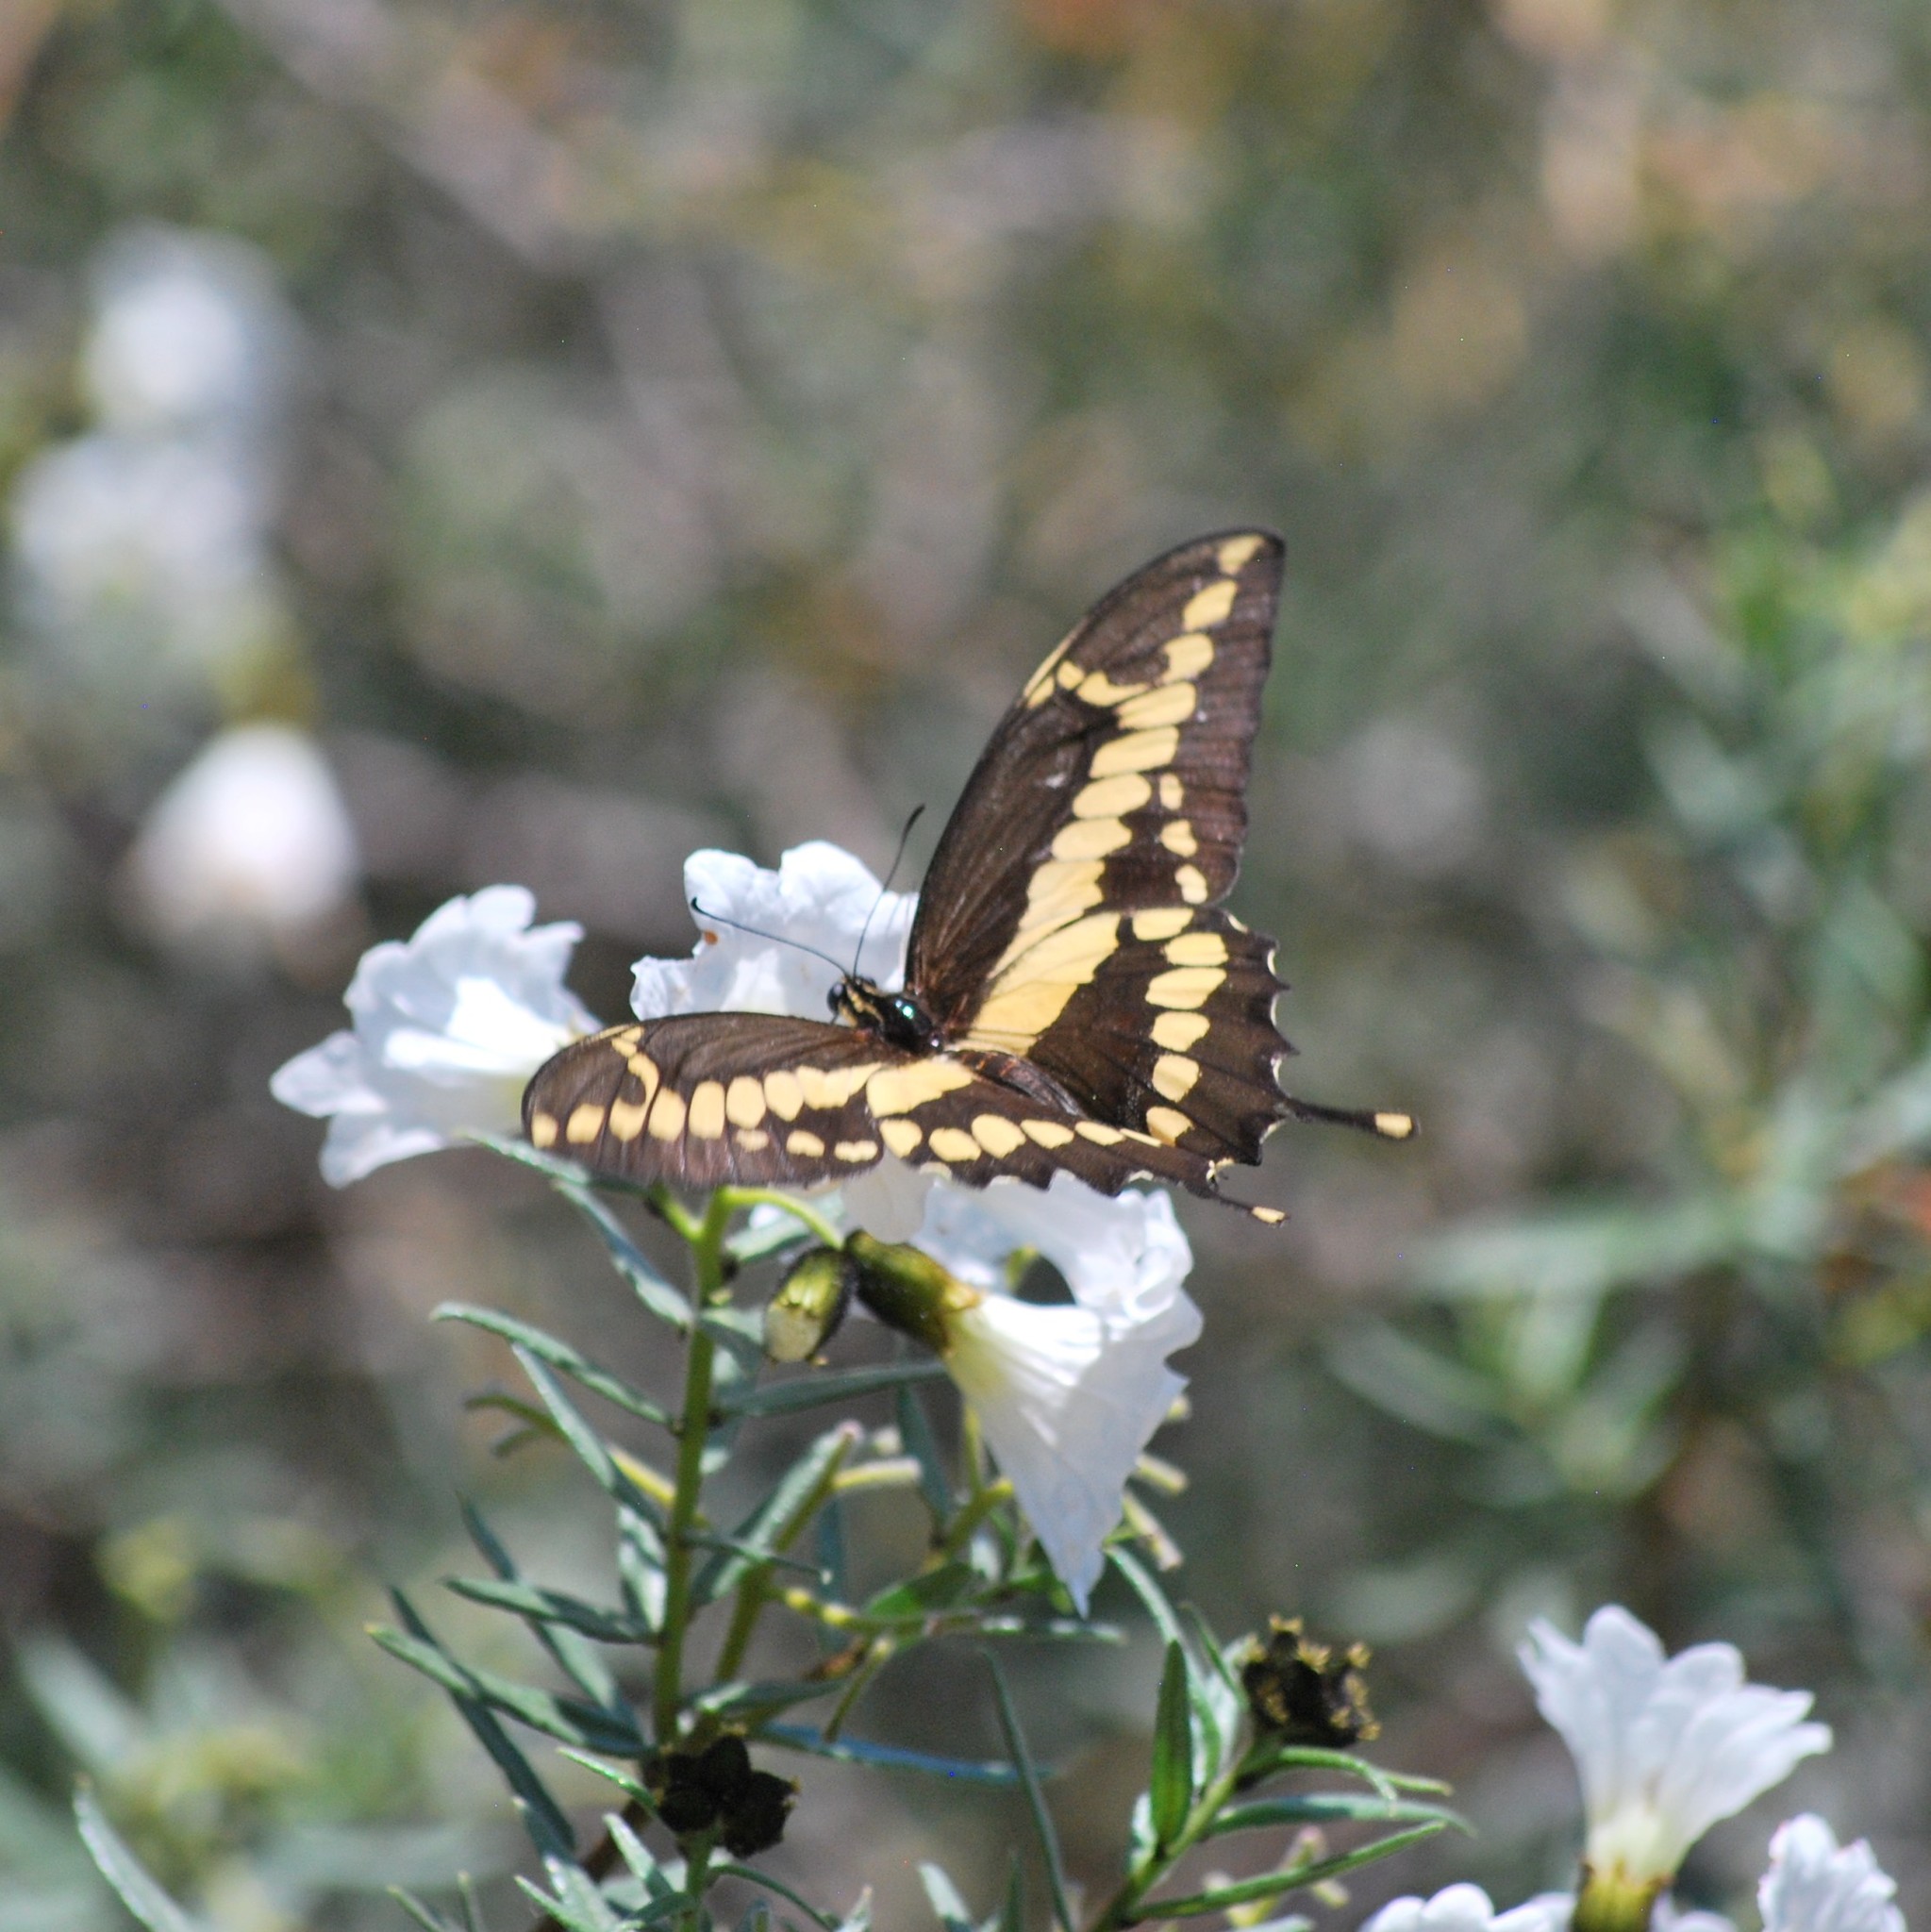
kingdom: Animalia
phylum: Arthropoda
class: Insecta
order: Lepidoptera
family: Papilionidae
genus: Papilio
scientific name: Papilio rumiko
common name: Western giant swallowtail
